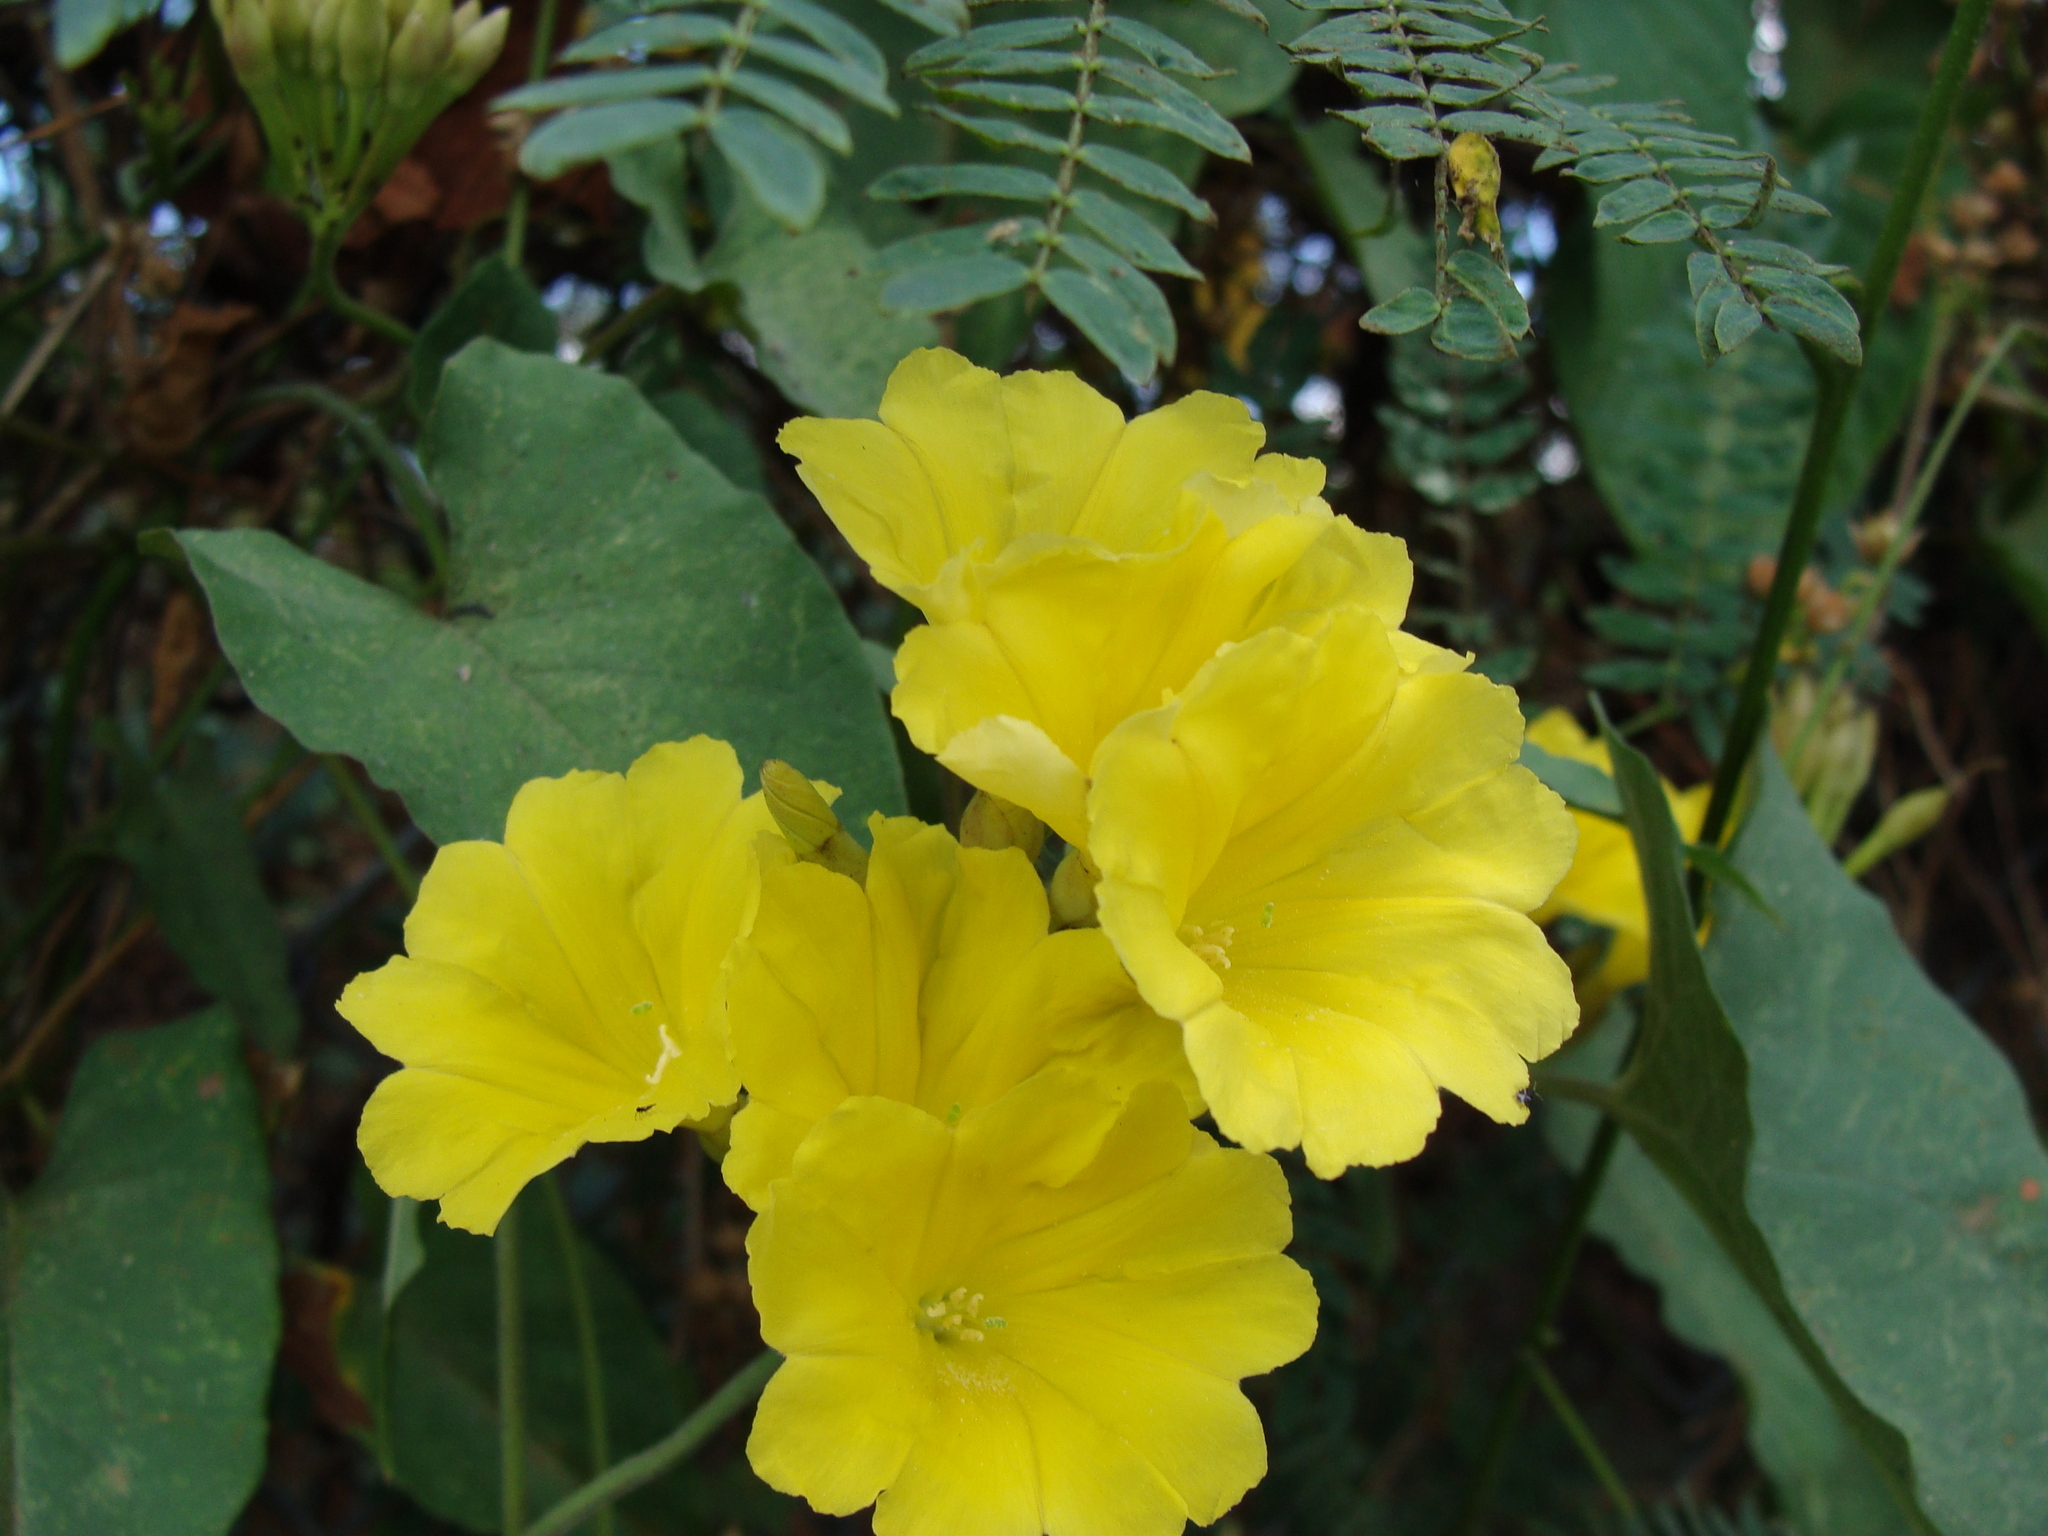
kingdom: Plantae
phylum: Tracheophyta
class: Magnoliopsida
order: Solanales
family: Convolvulaceae
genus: Camonea
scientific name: Camonea umbellata
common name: Hogvine
